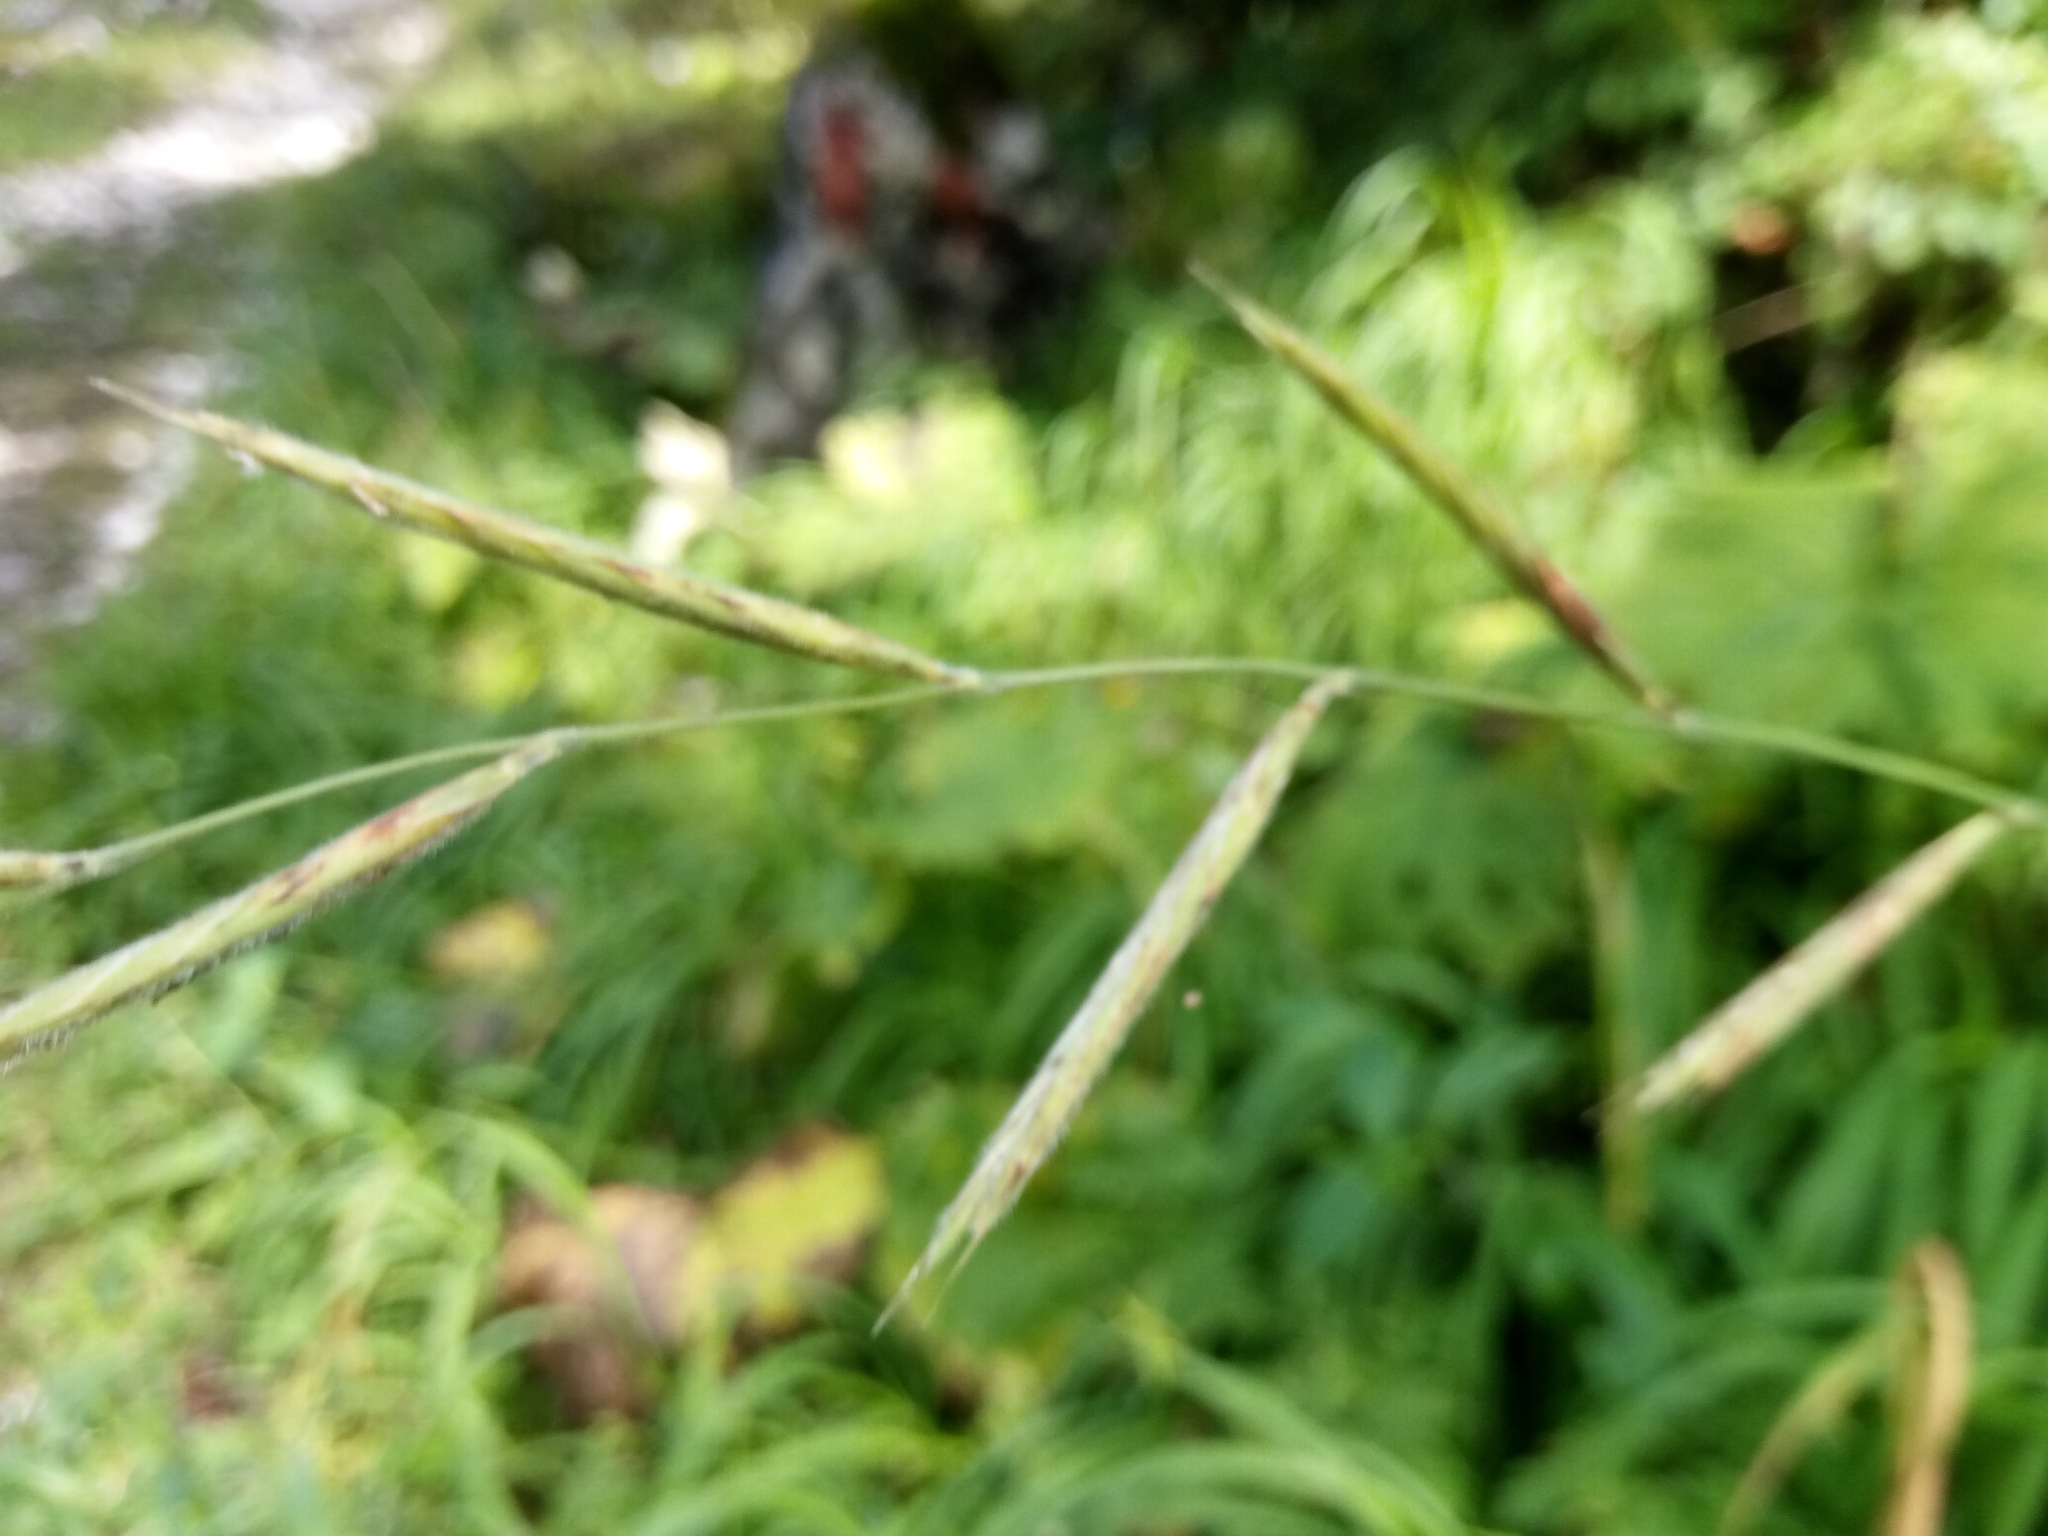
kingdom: Plantae
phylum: Tracheophyta
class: Liliopsida
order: Poales
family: Poaceae
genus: Brachypodium
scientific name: Brachypodium pinnatum
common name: Tor grass
